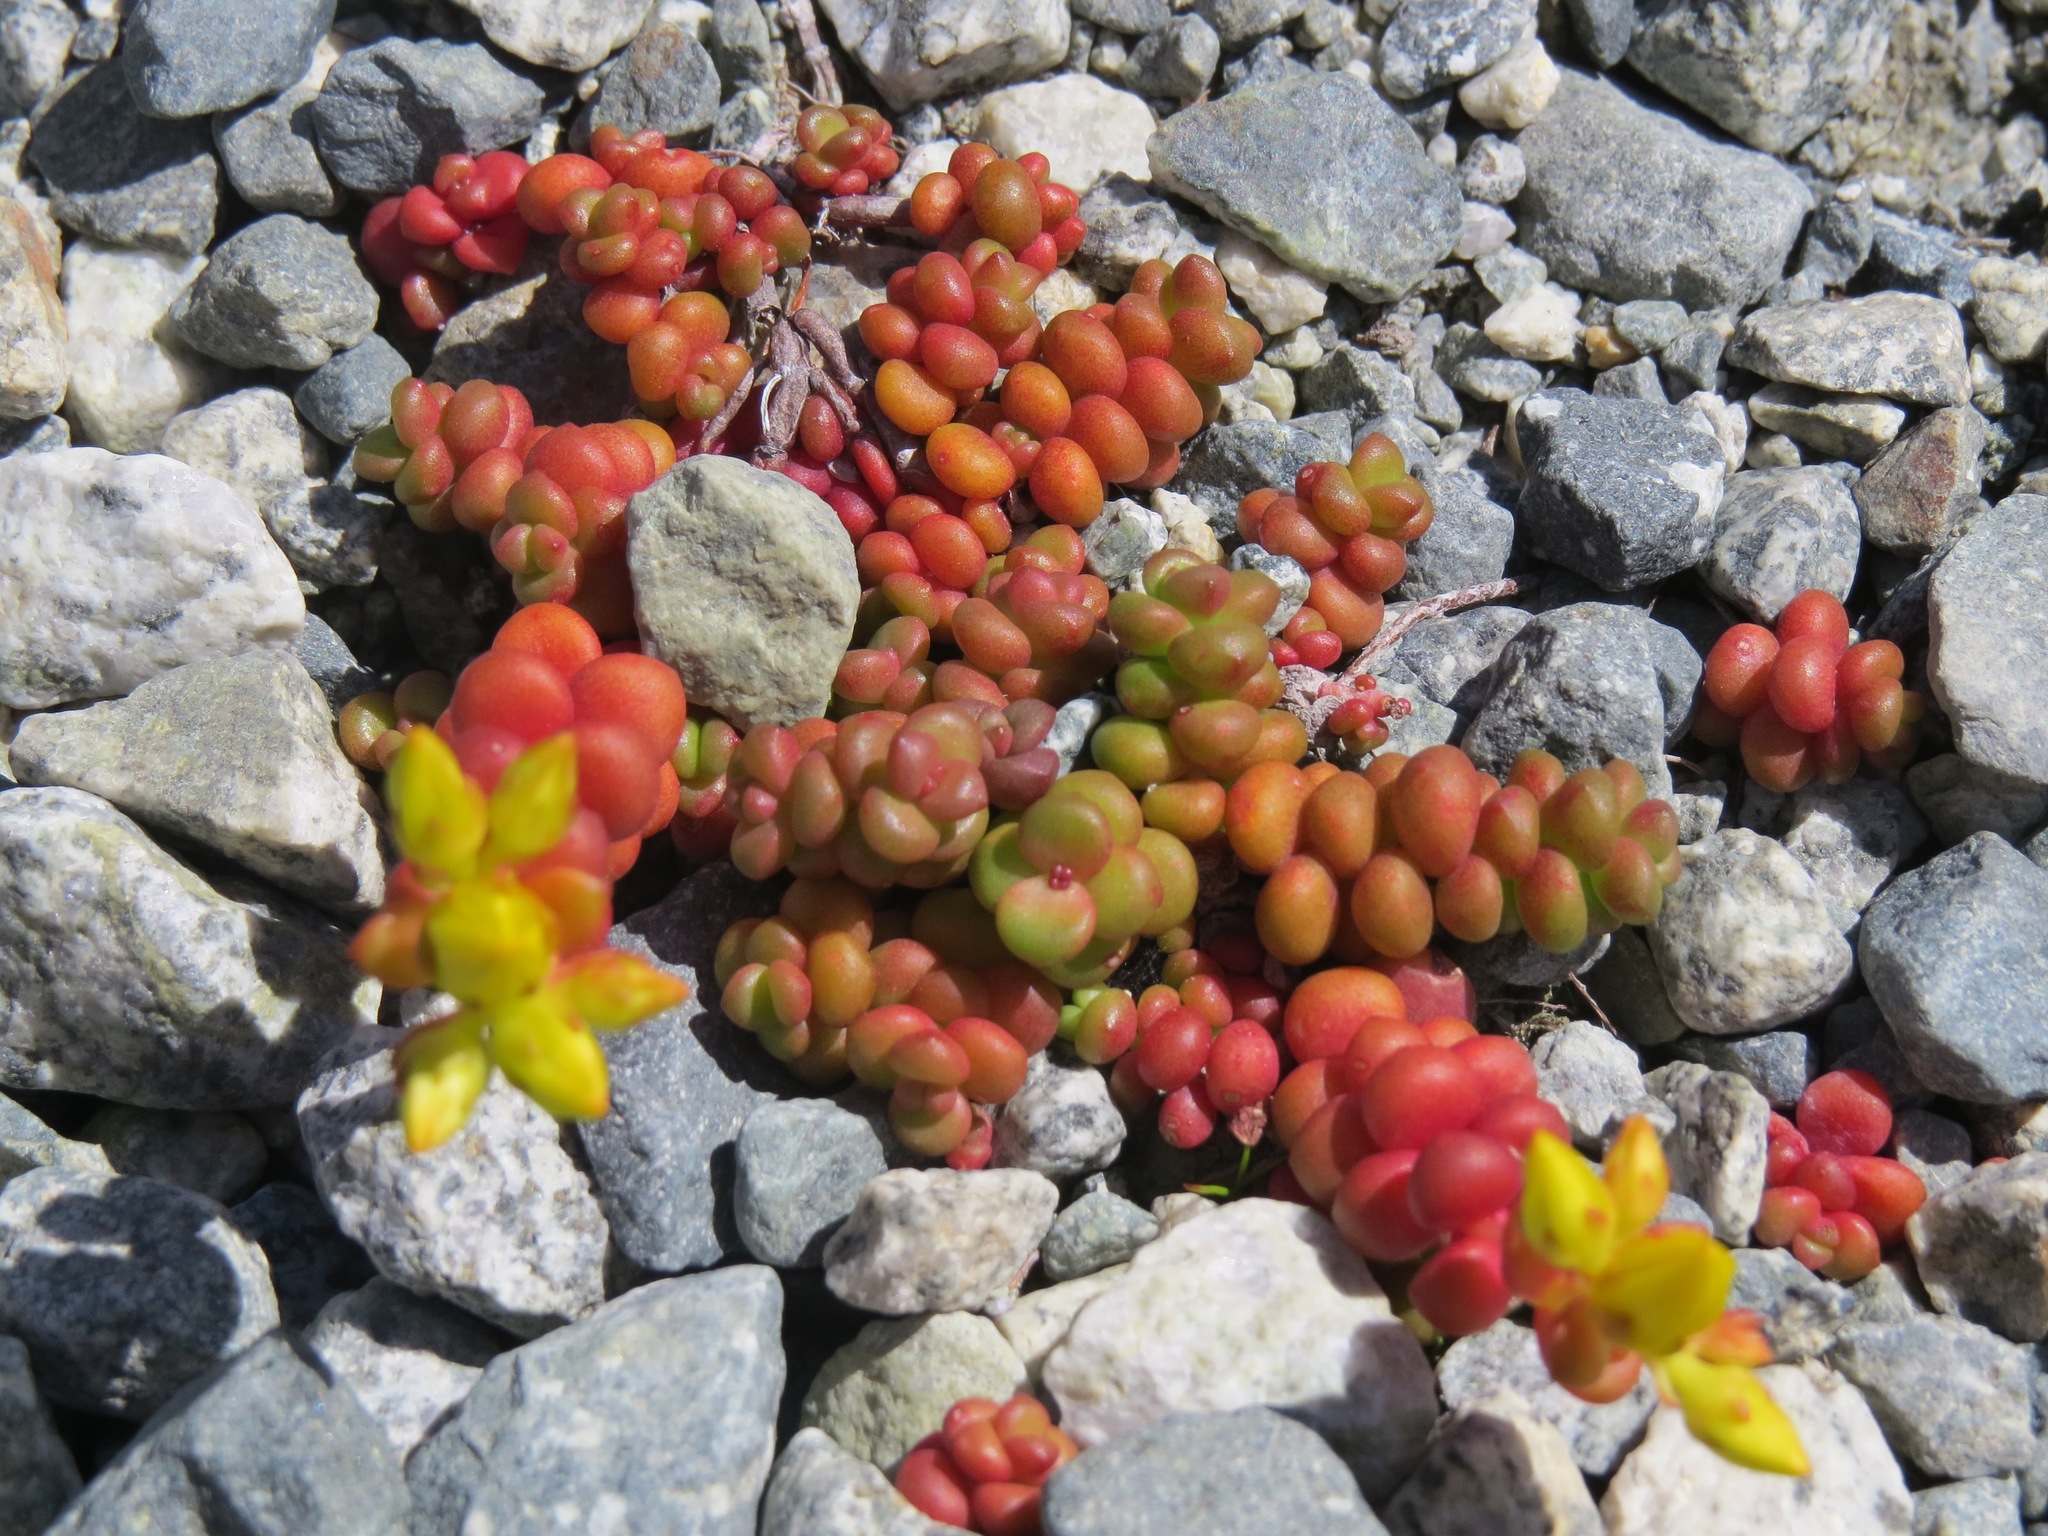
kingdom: Plantae
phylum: Tracheophyta
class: Magnoliopsida
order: Saxifragales
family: Crassulaceae
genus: Sedum
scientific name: Sedum divergens
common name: Cascade stonecrop
